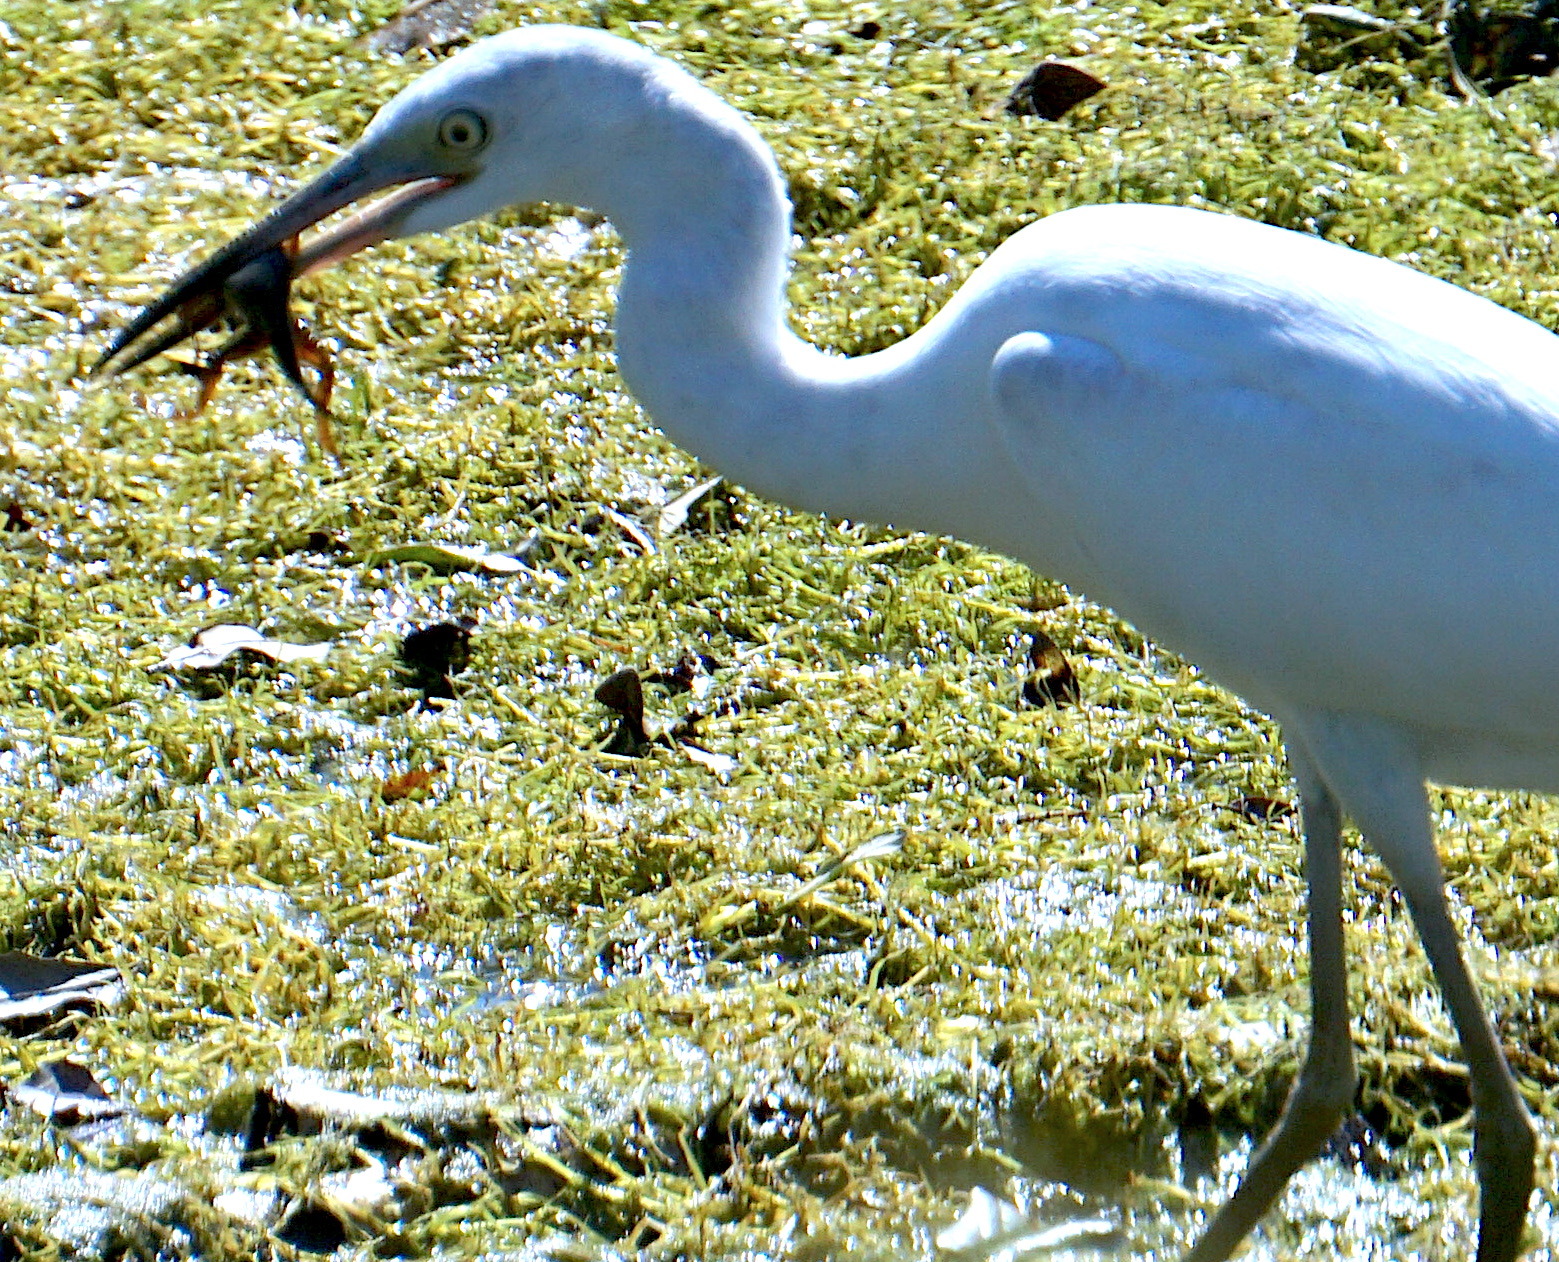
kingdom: Animalia
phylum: Chordata
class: Aves
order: Pelecaniformes
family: Ardeidae
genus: Egretta
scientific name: Egretta caerulea
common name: Little blue heron
